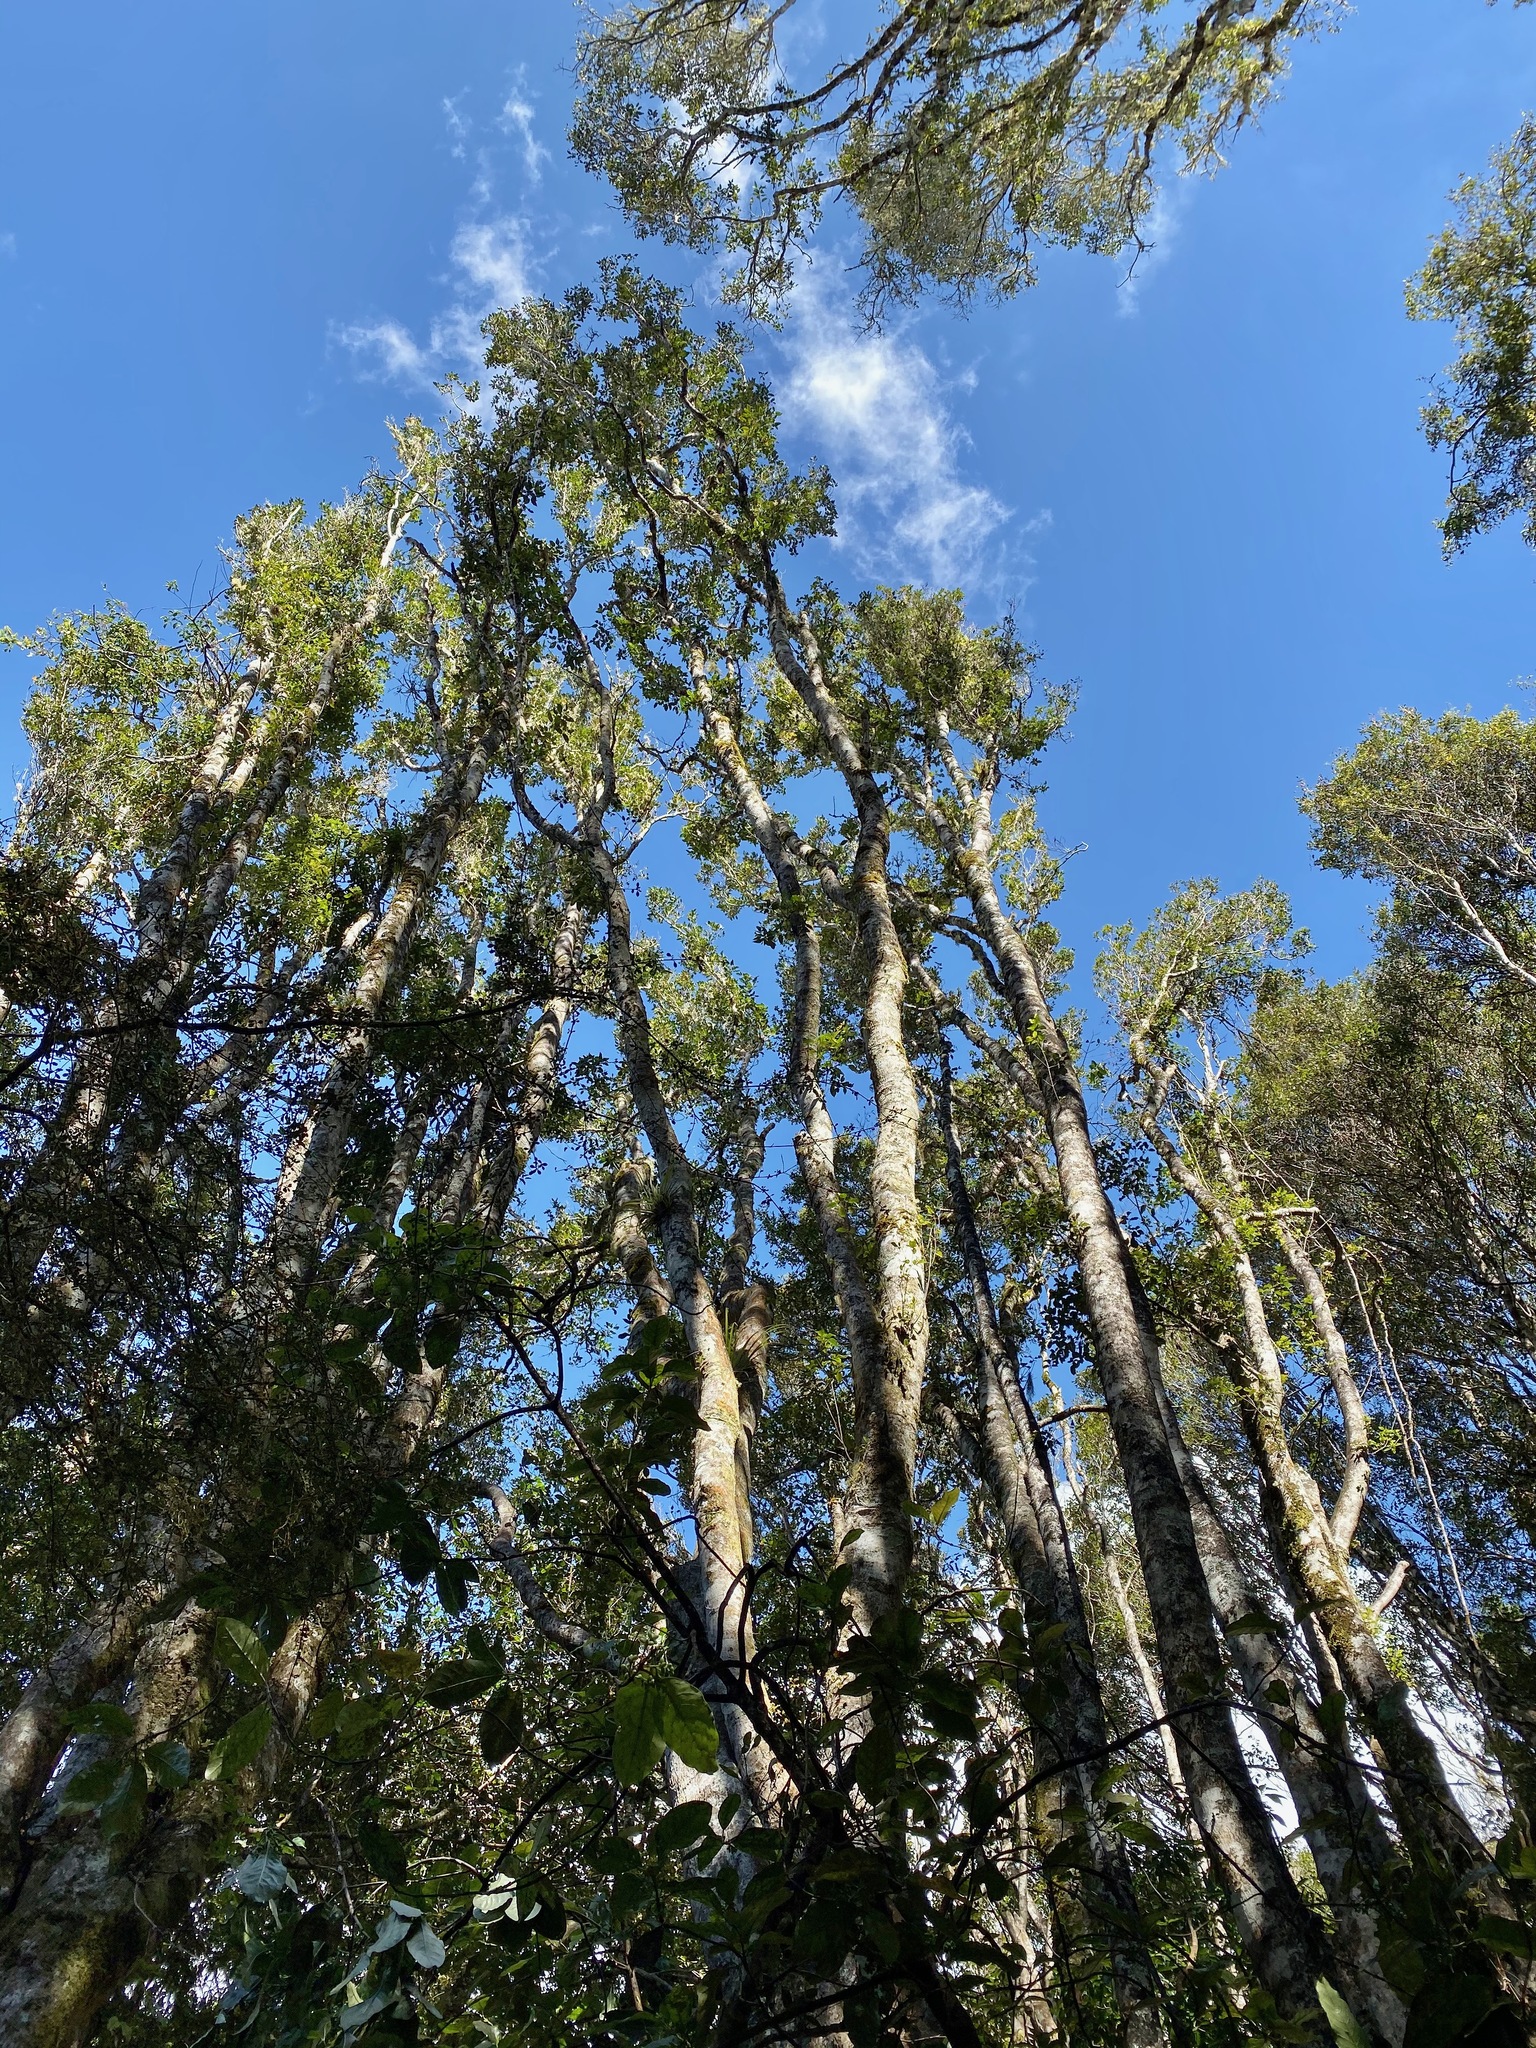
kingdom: Plantae
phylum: Tracheophyta
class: Magnoliopsida
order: Oxalidales
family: Cunoniaceae
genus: Pterophylla
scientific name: Pterophylla racemosa
